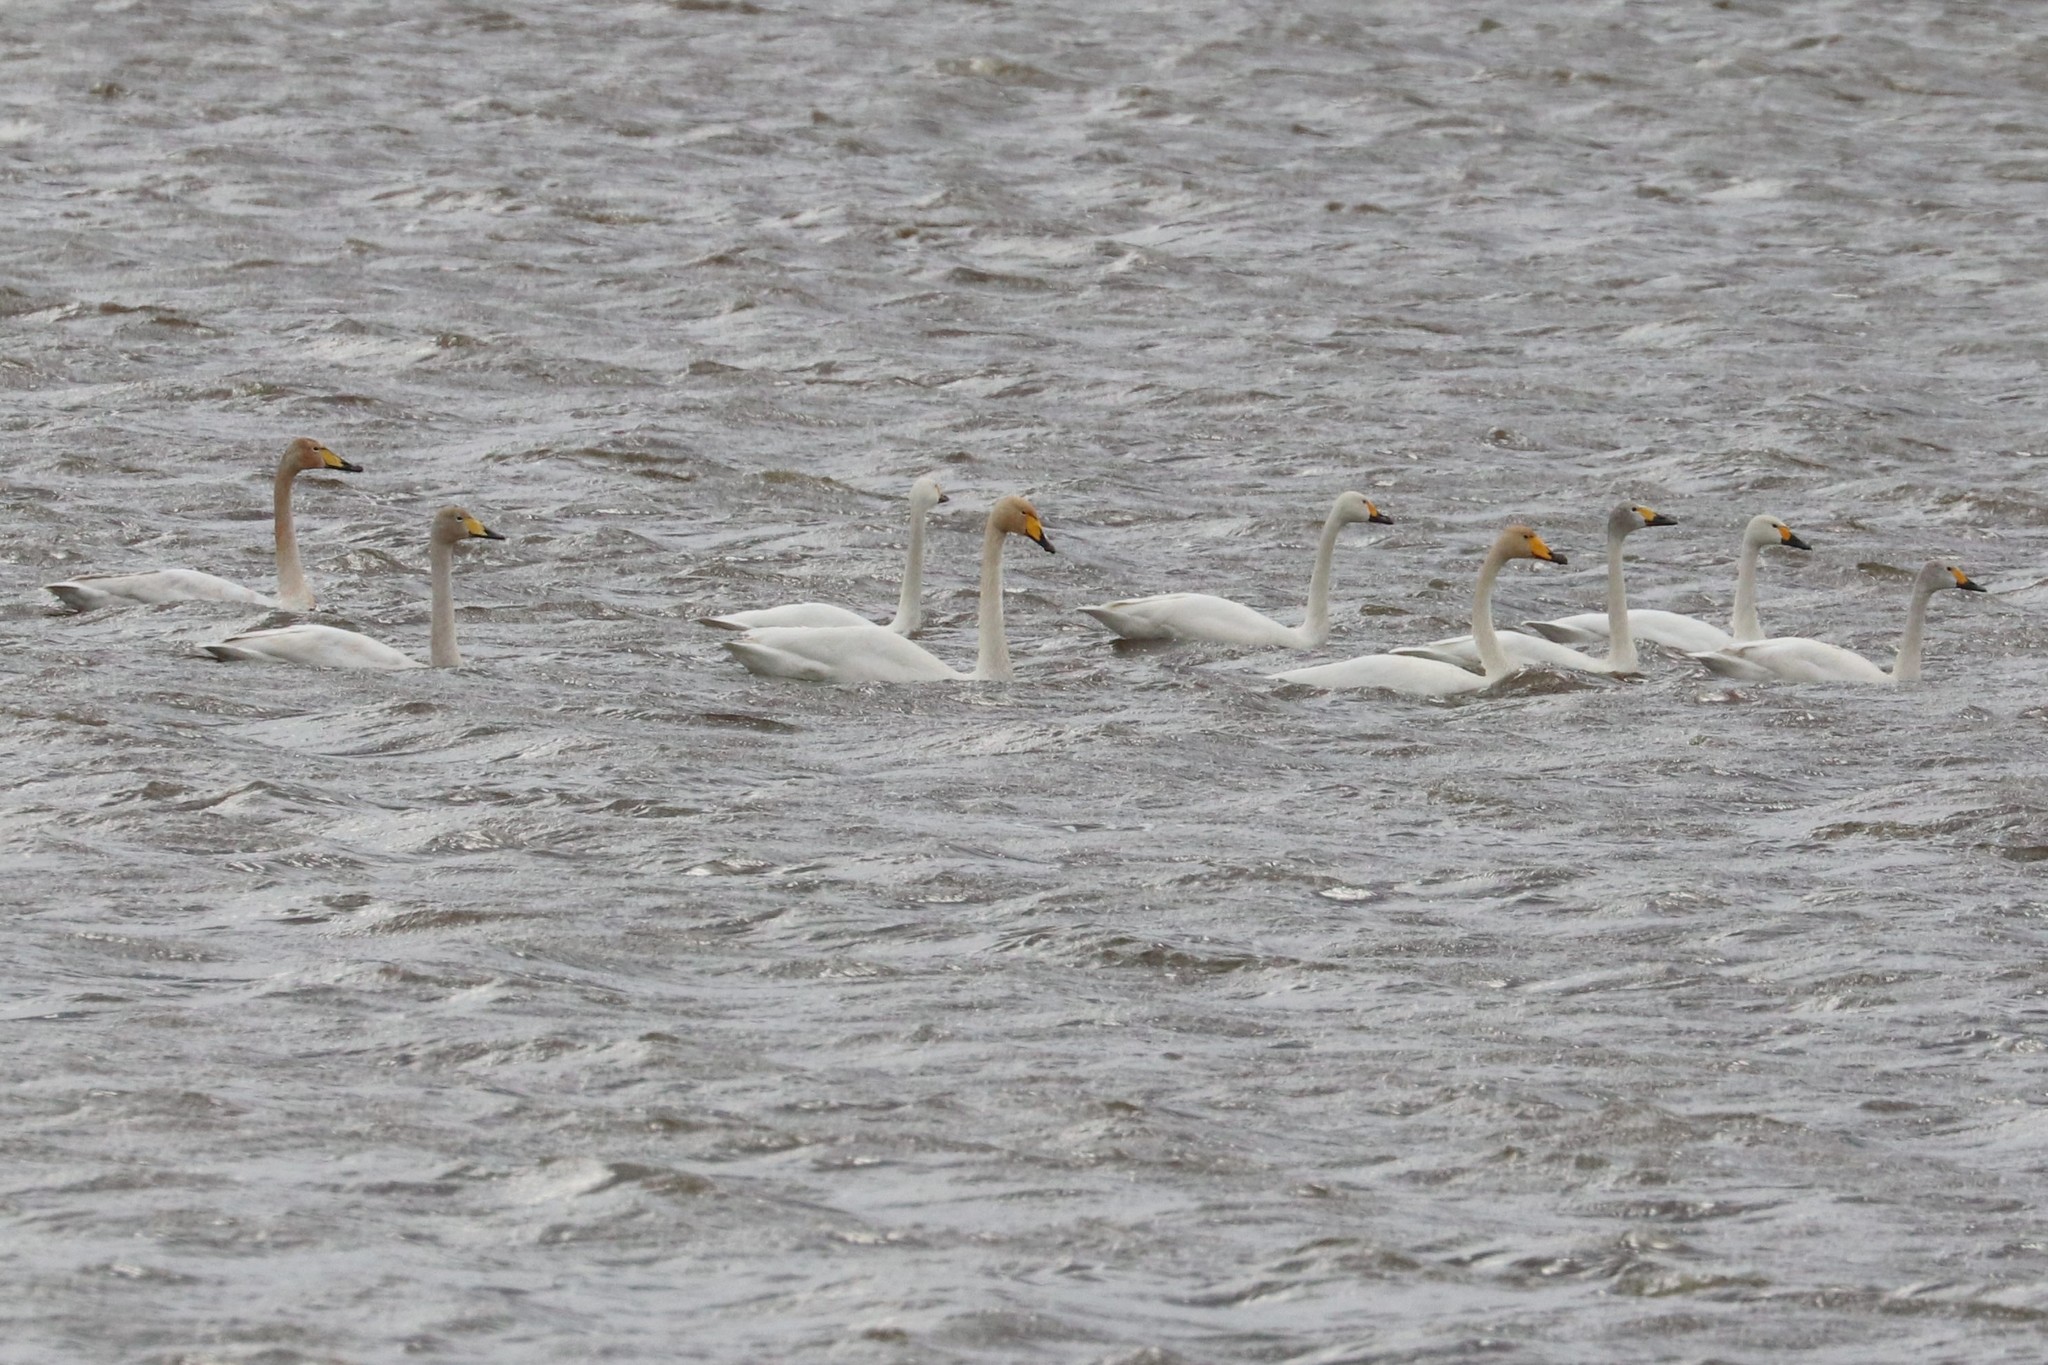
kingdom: Animalia
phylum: Chordata
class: Aves
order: Anseriformes
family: Anatidae
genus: Cygnus
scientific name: Cygnus columbianus
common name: Tundra swan
